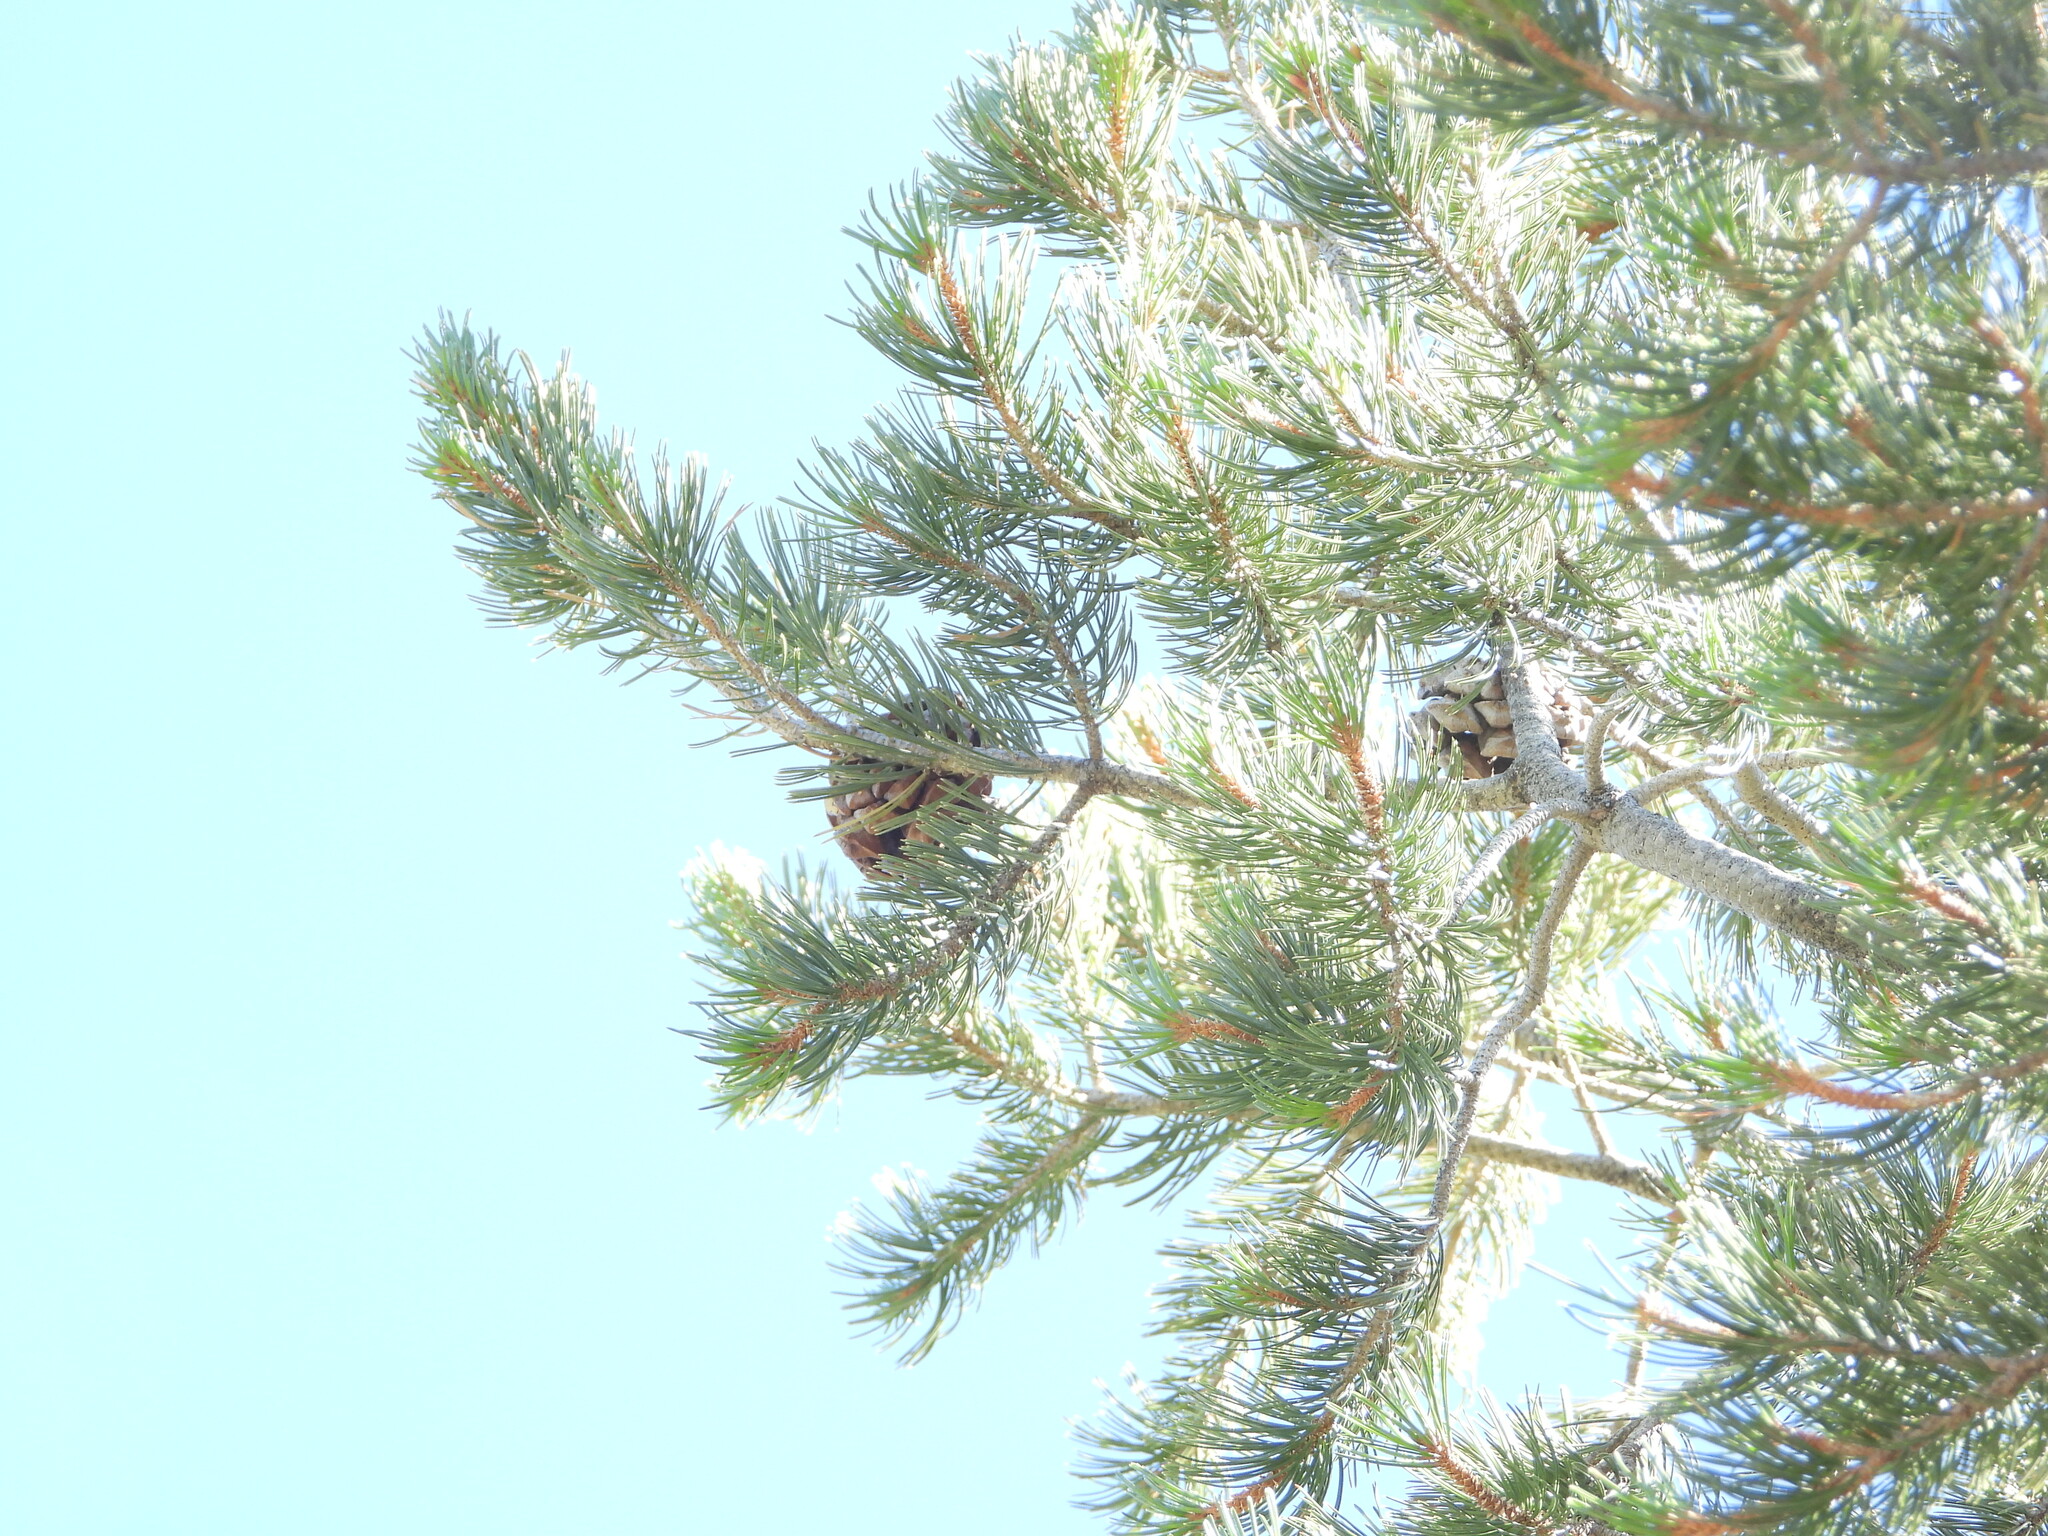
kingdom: Plantae
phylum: Tracheophyta
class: Pinopsida
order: Pinales
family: Pinaceae
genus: Pinus
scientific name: Pinus cembroides
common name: Mexican nut pine
